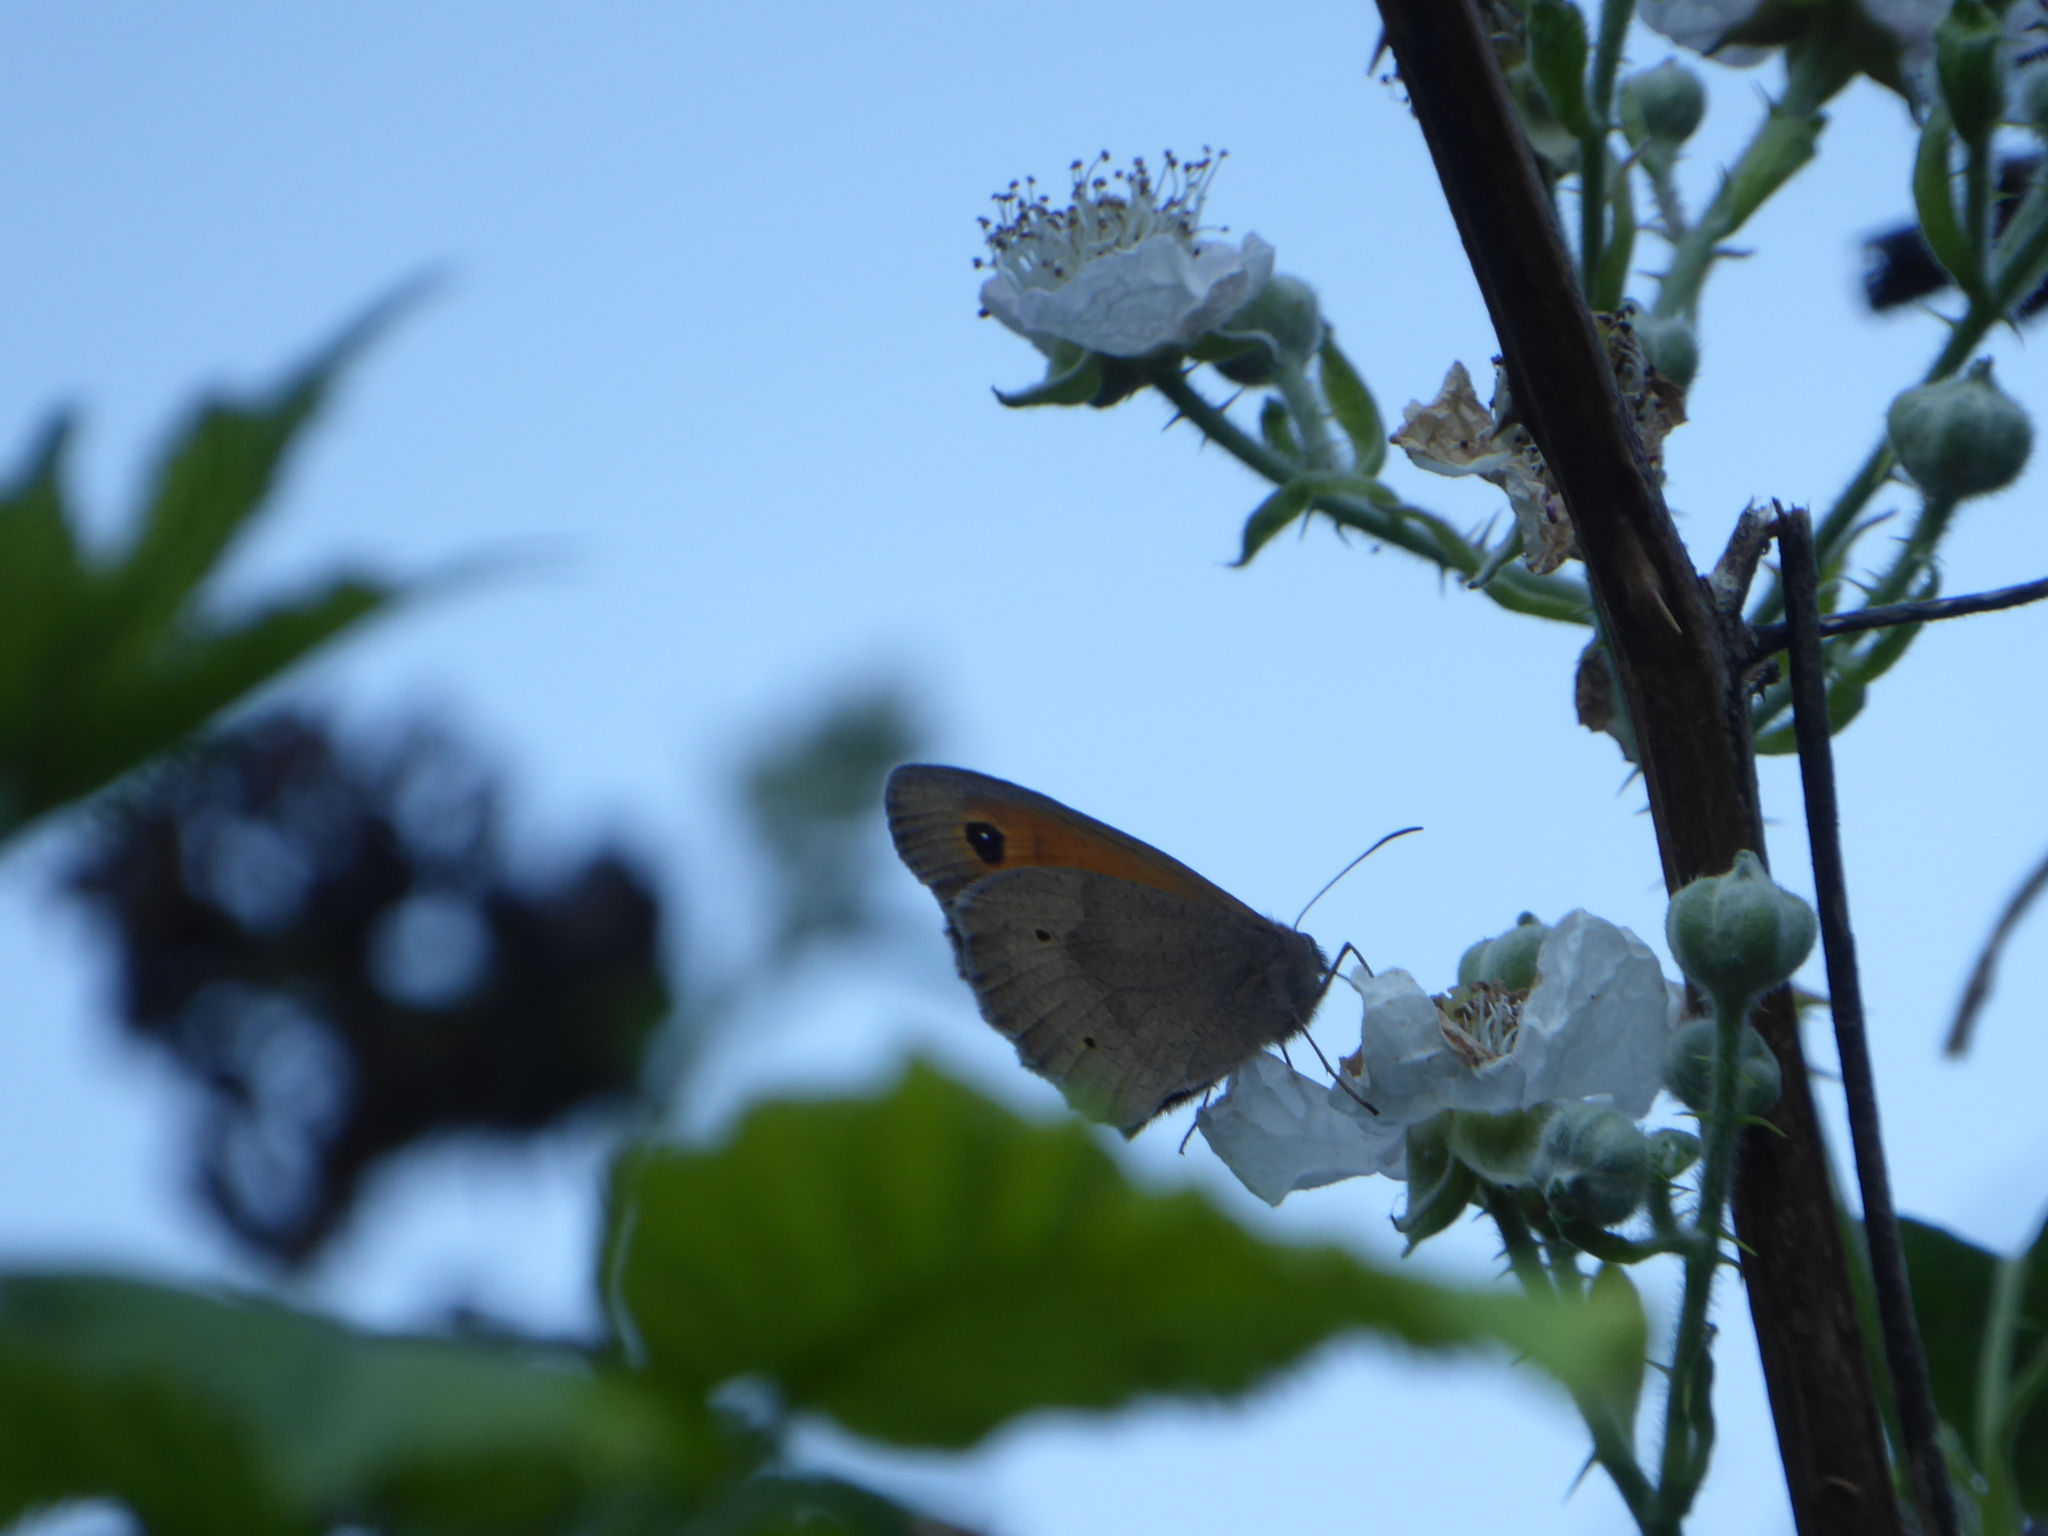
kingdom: Animalia
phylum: Arthropoda
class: Insecta
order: Lepidoptera
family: Nymphalidae
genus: Maniola
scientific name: Maniola jurtina
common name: Meadow brown
